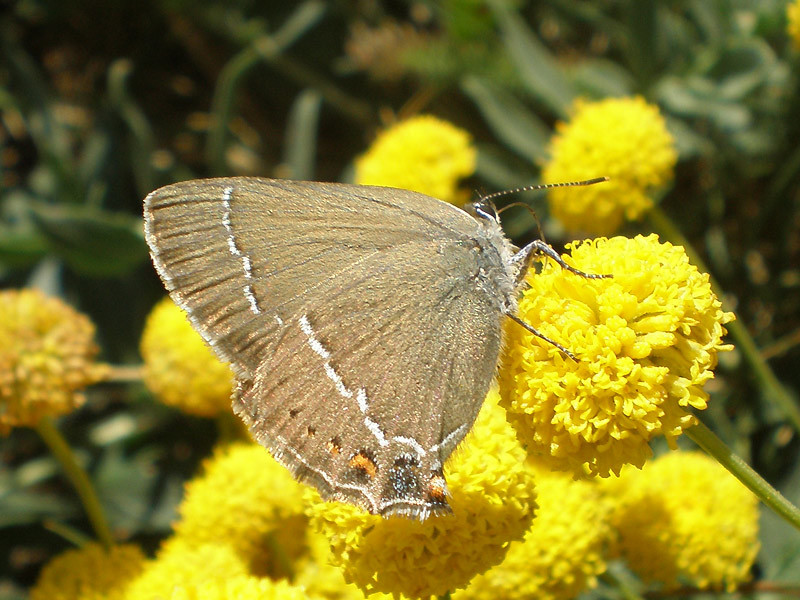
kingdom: Animalia
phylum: Arthropoda
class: Insecta
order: Lepidoptera
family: Lycaenidae
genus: Tuttiola
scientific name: Tuttiola spini
